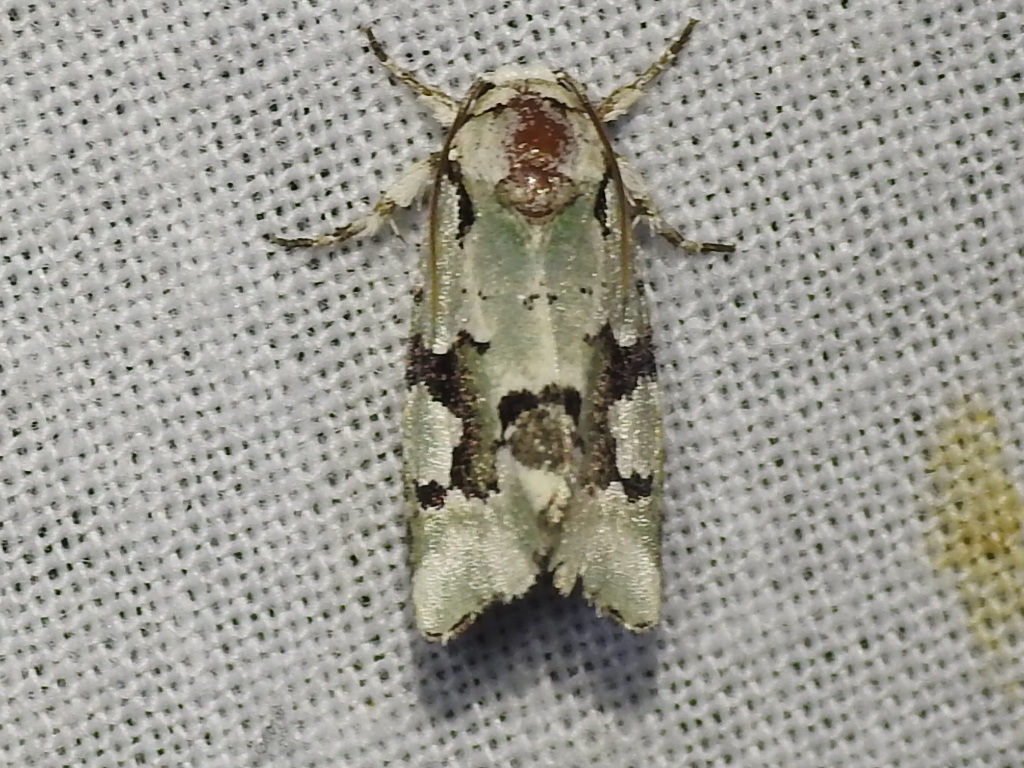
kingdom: Animalia
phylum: Arthropoda
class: Insecta
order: Lepidoptera
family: Noctuidae
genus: Emarginea
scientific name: Emarginea percara
